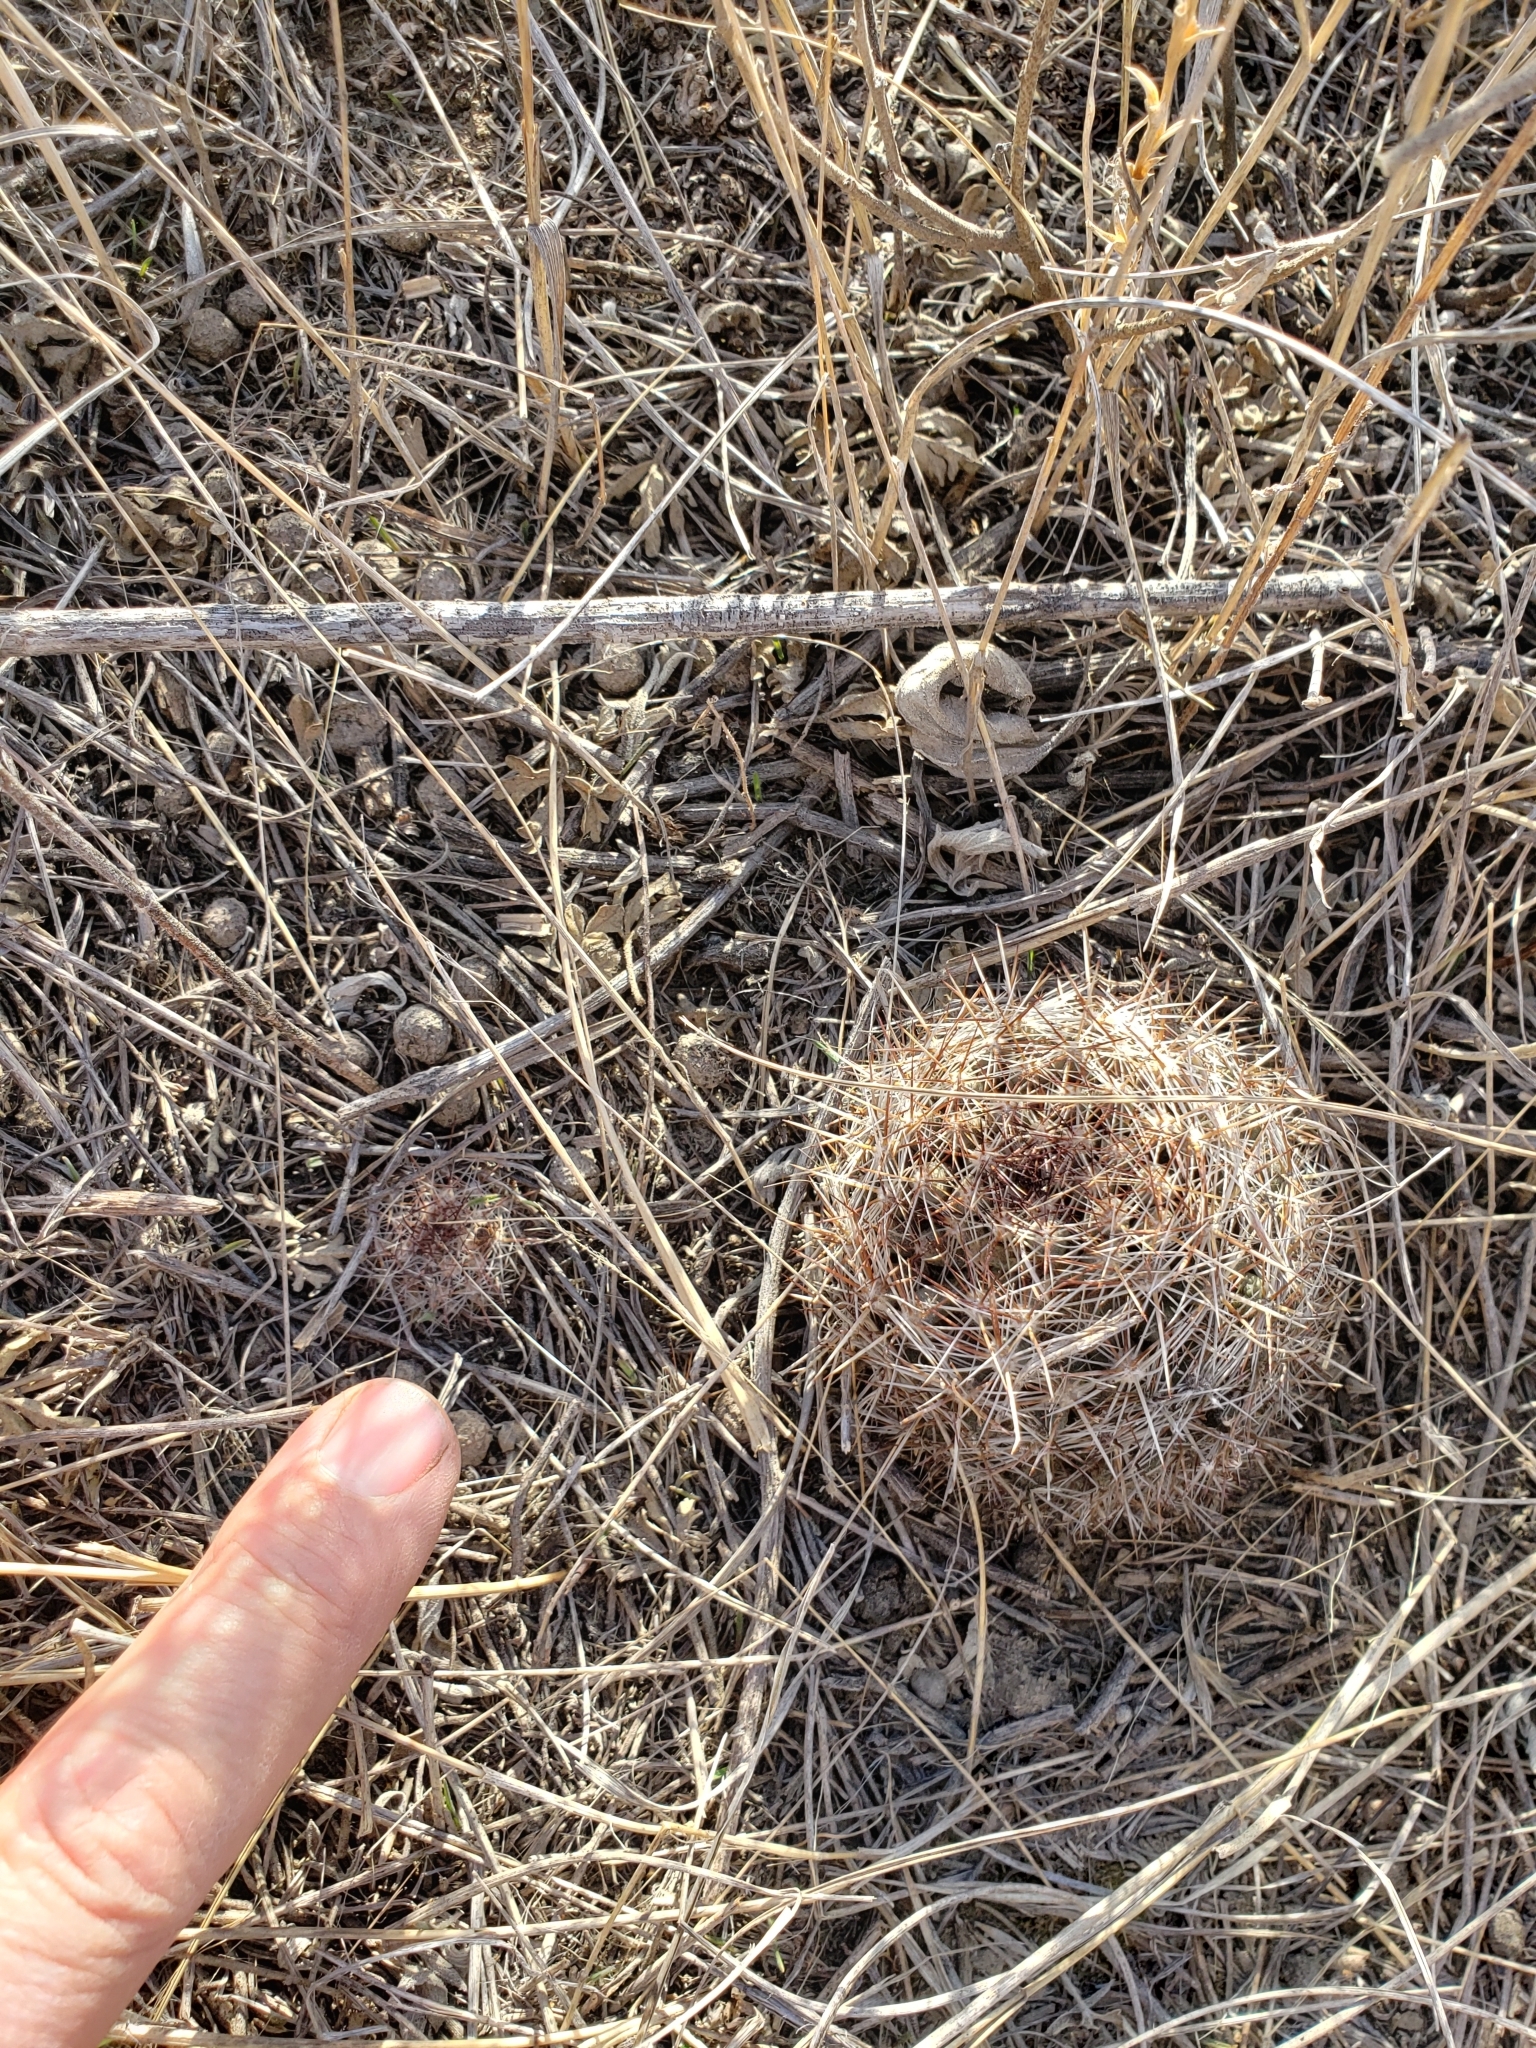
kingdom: Plantae
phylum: Tracheophyta
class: Magnoliopsida
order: Caryophyllales
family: Cactaceae
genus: Pelecyphora
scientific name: Pelecyphora vivipara
